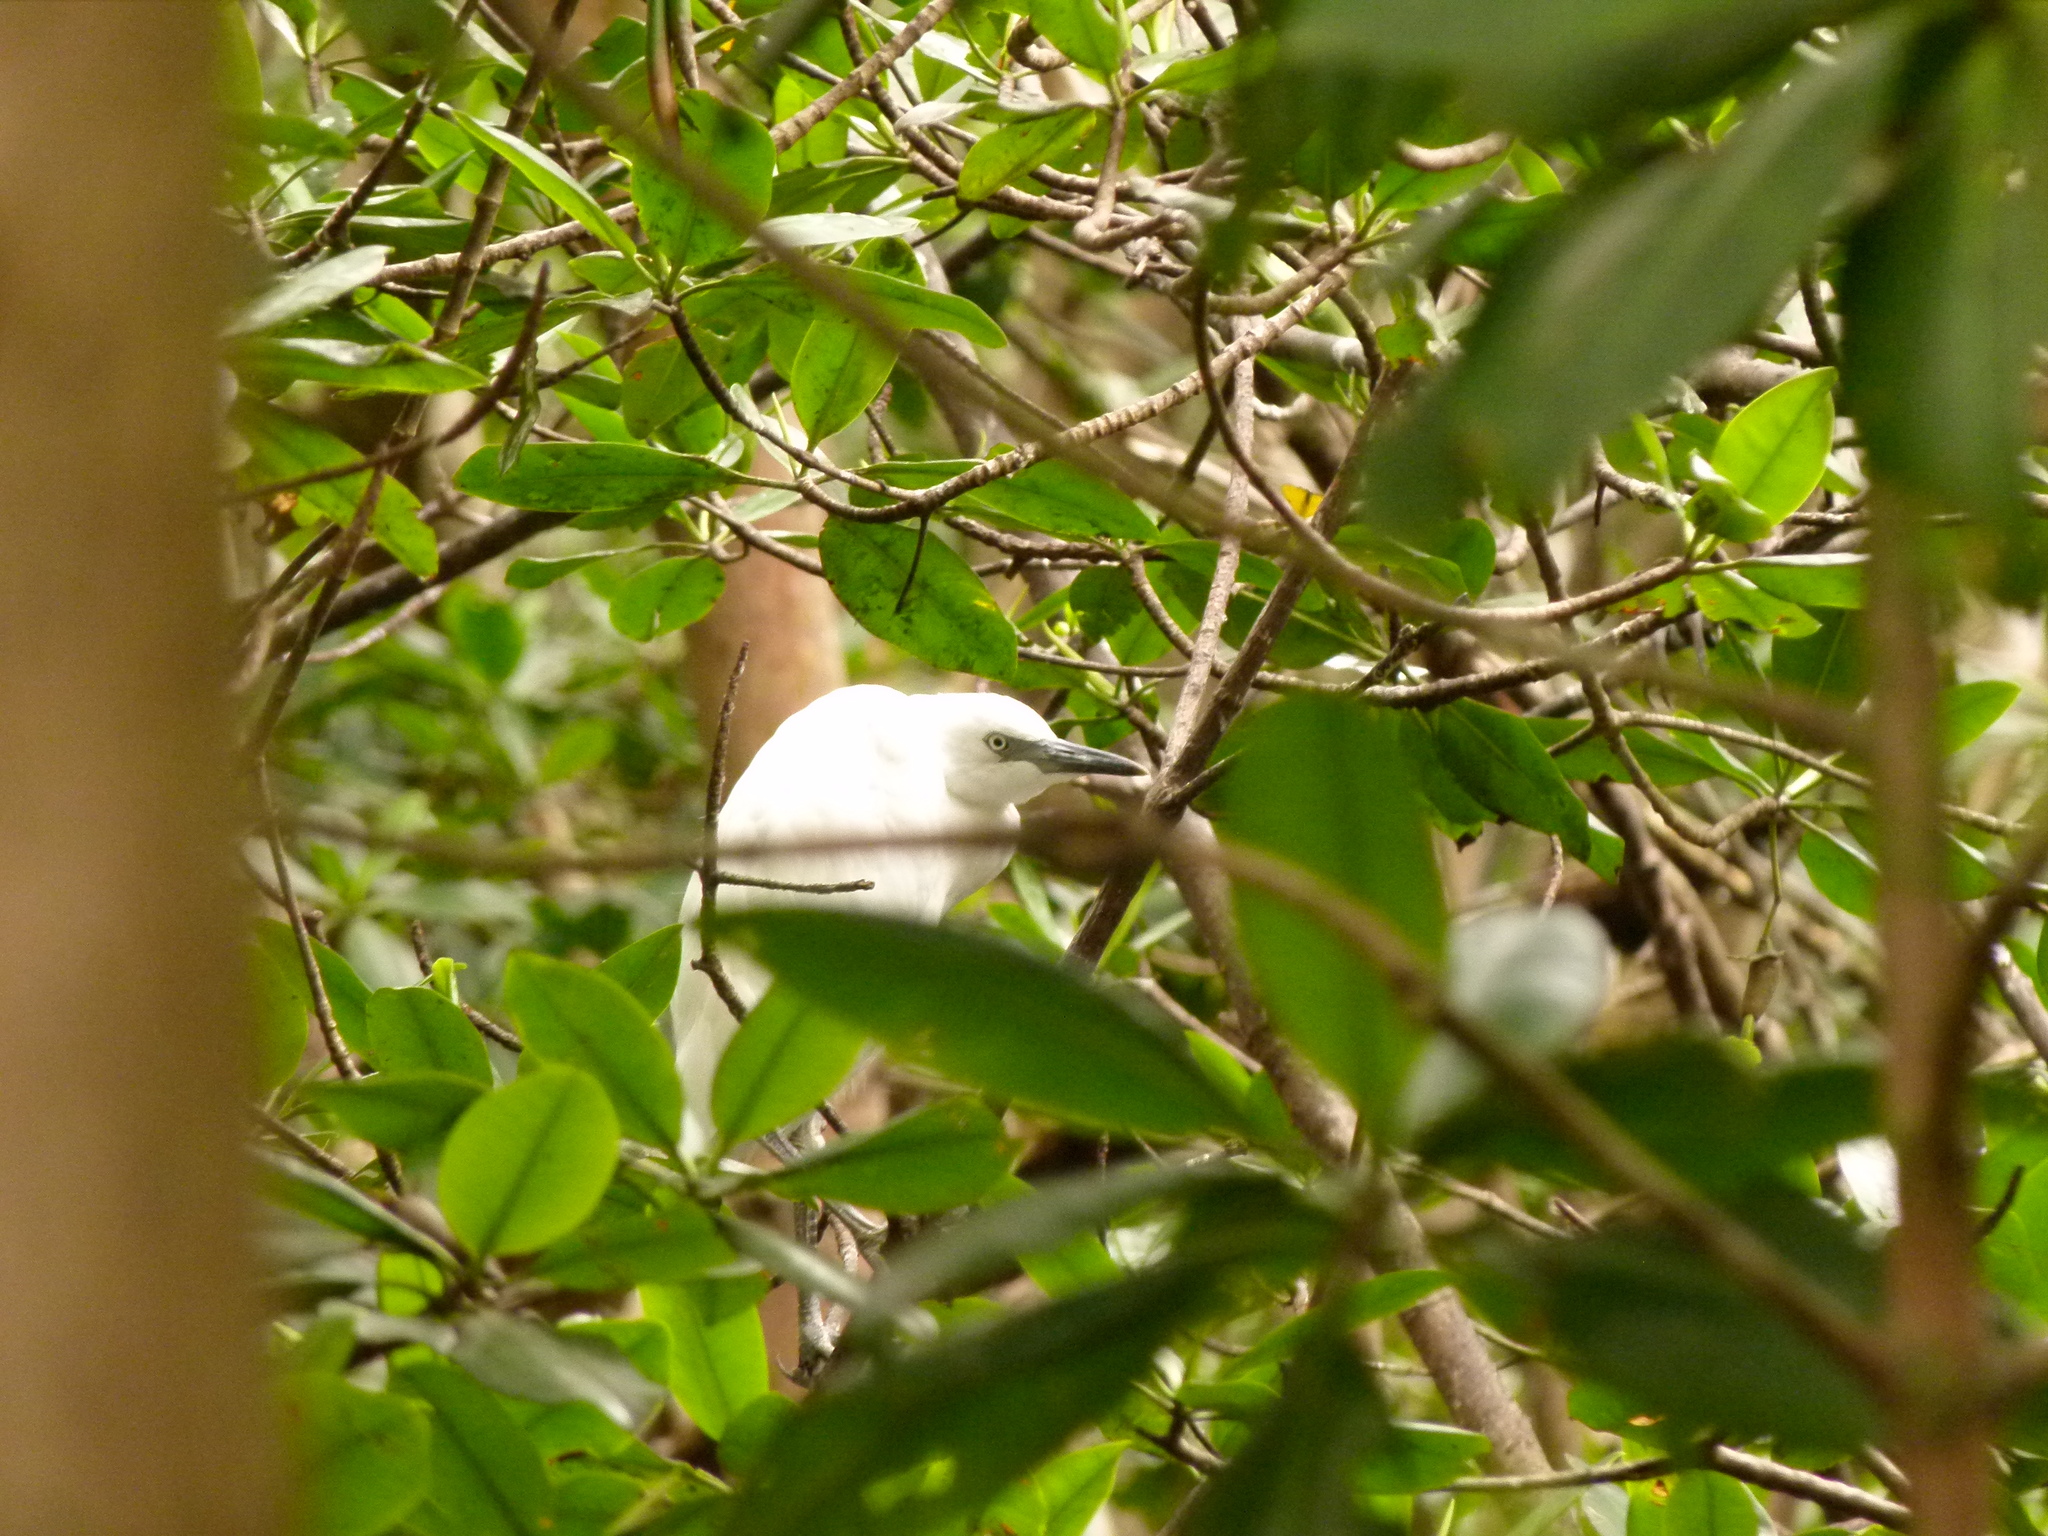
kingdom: Animalia
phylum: Chordata
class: Aves
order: Pelecaniformes
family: Ardeidae
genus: Egretta
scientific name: Egretta caerulea
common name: Little blue heron
